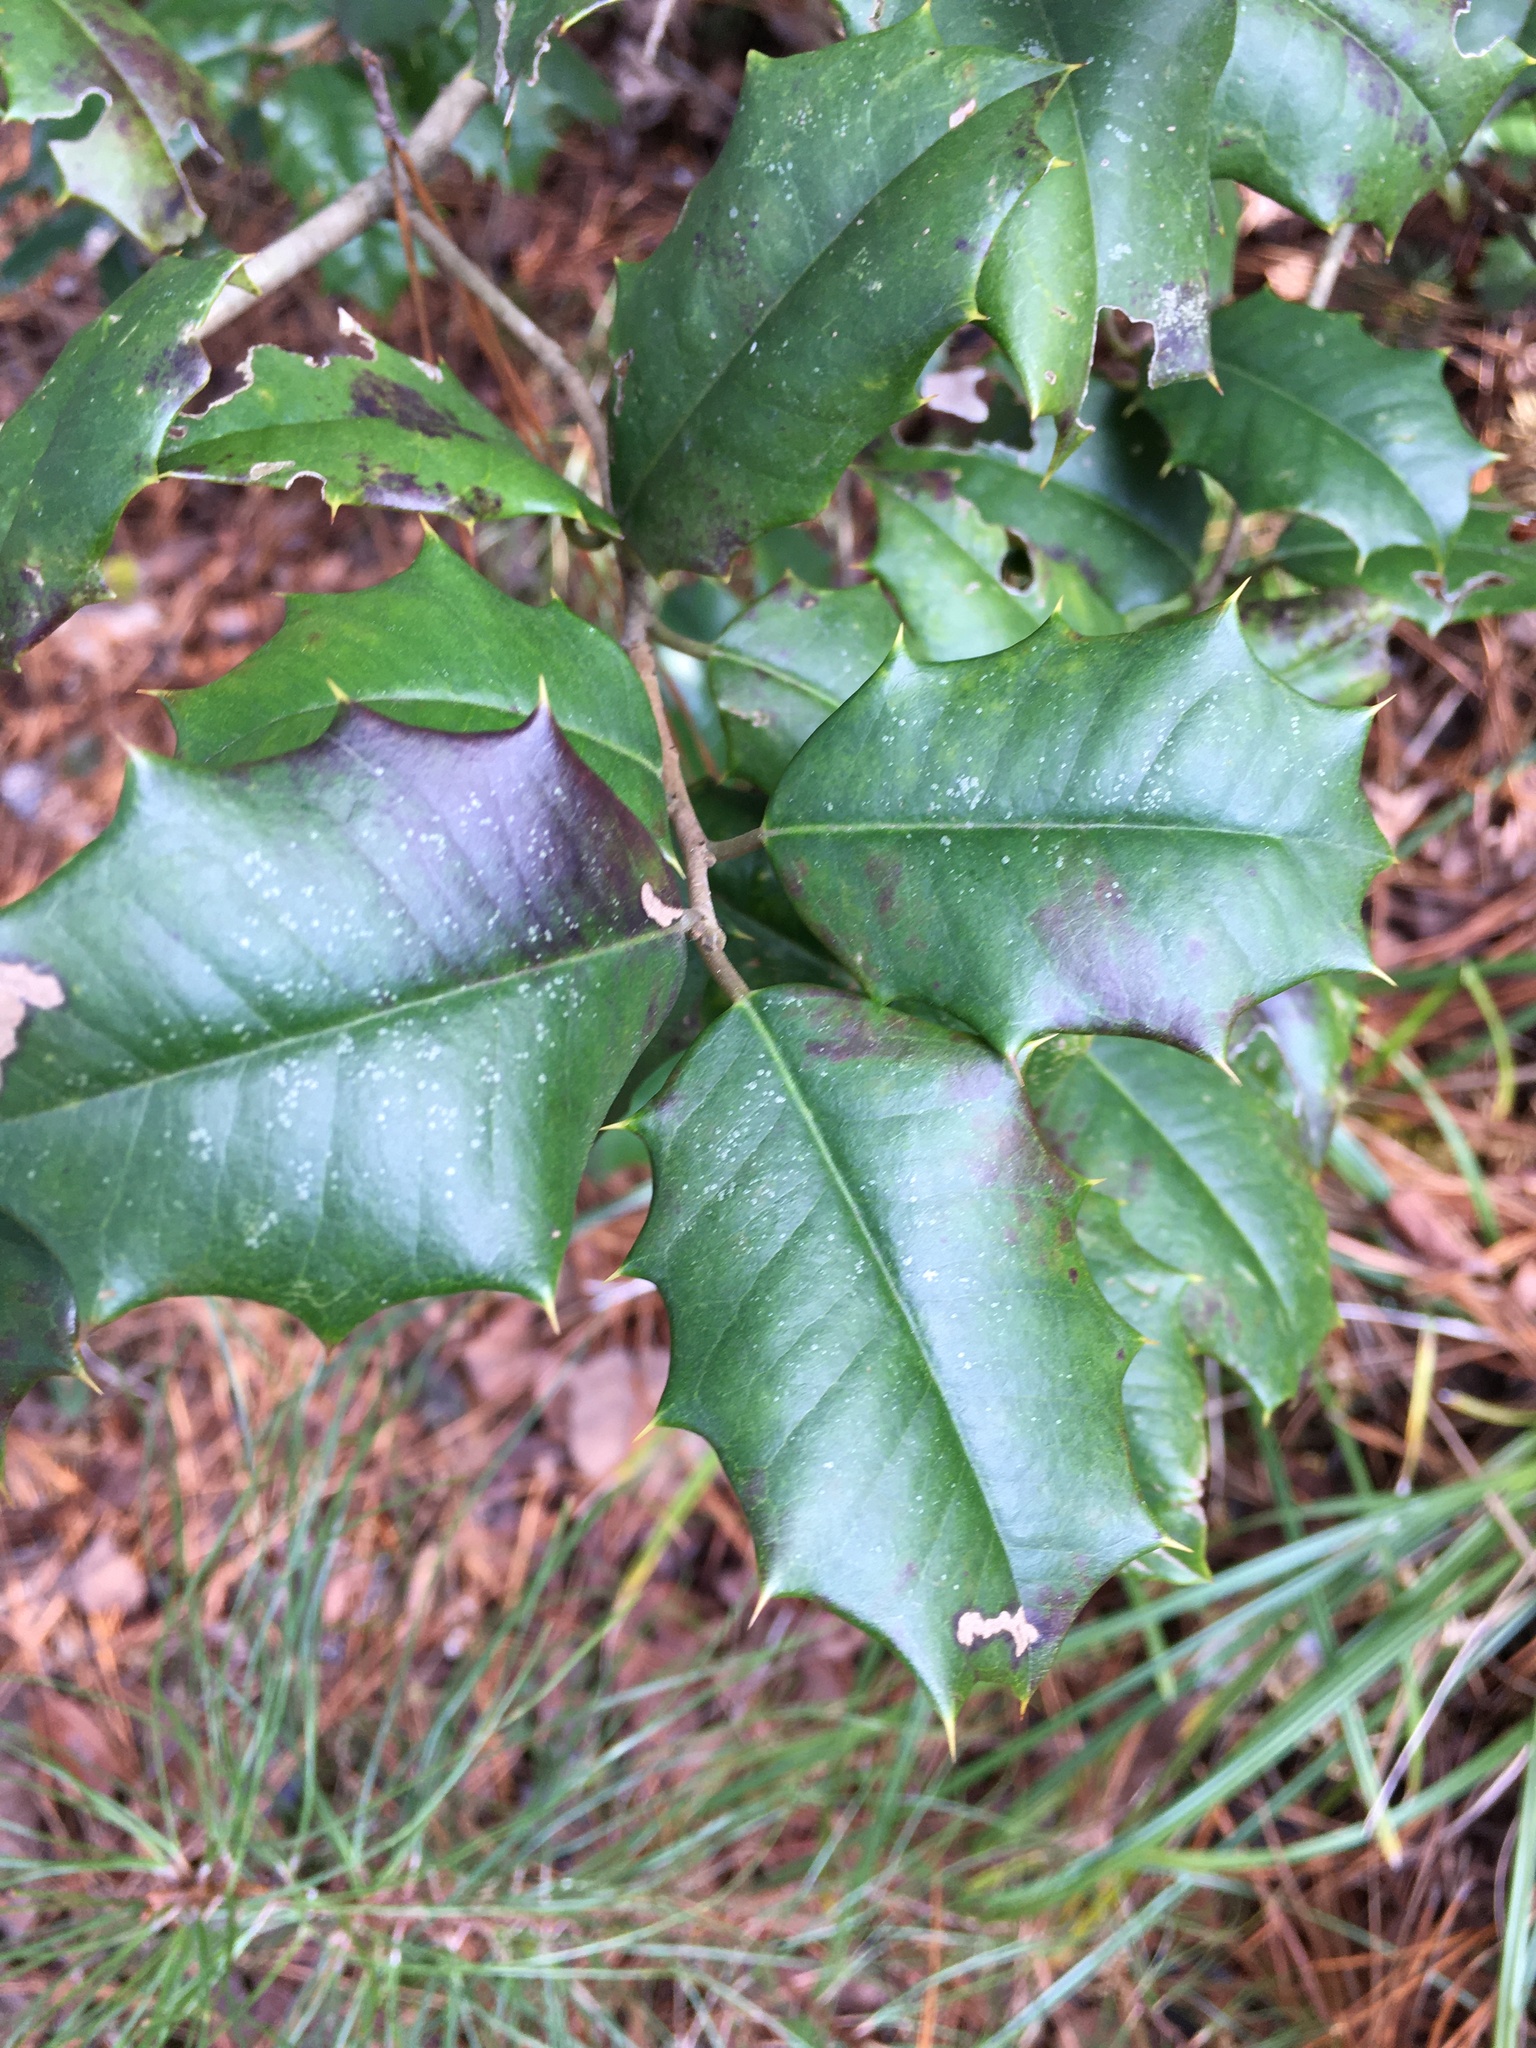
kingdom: Plantae
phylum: Tracheophyta
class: Magnoliopsida
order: Aquifoliales
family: Aquifoliaceae
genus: Ilex
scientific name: Ilex opaca
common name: American holly
